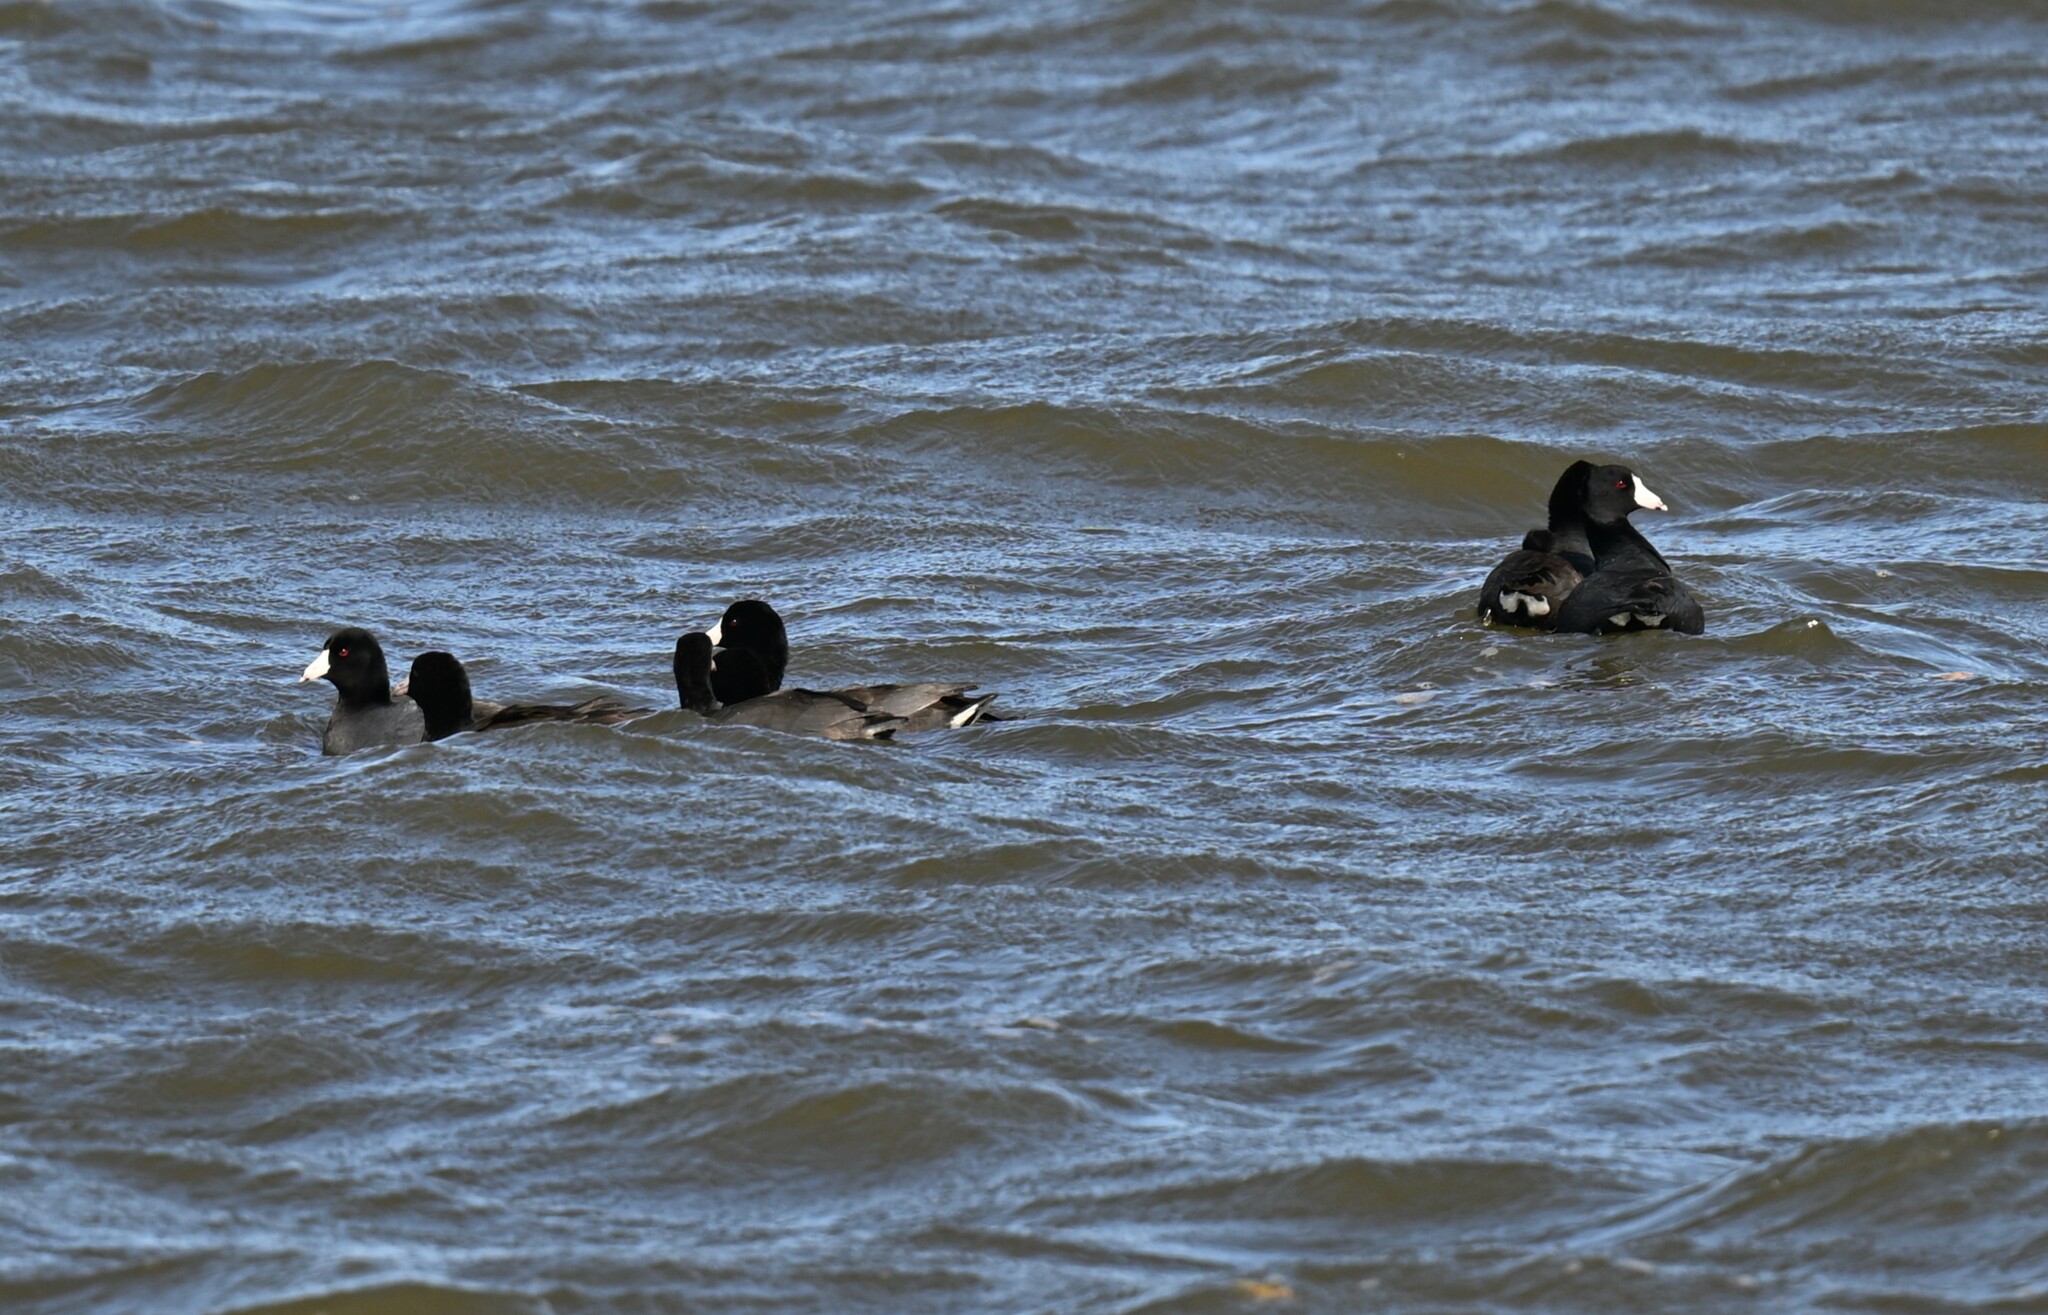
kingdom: Animalia
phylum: Chordata
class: Aves
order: Gruiformes
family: Rallidae
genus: Fulica
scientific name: Fulica americana
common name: American coot
